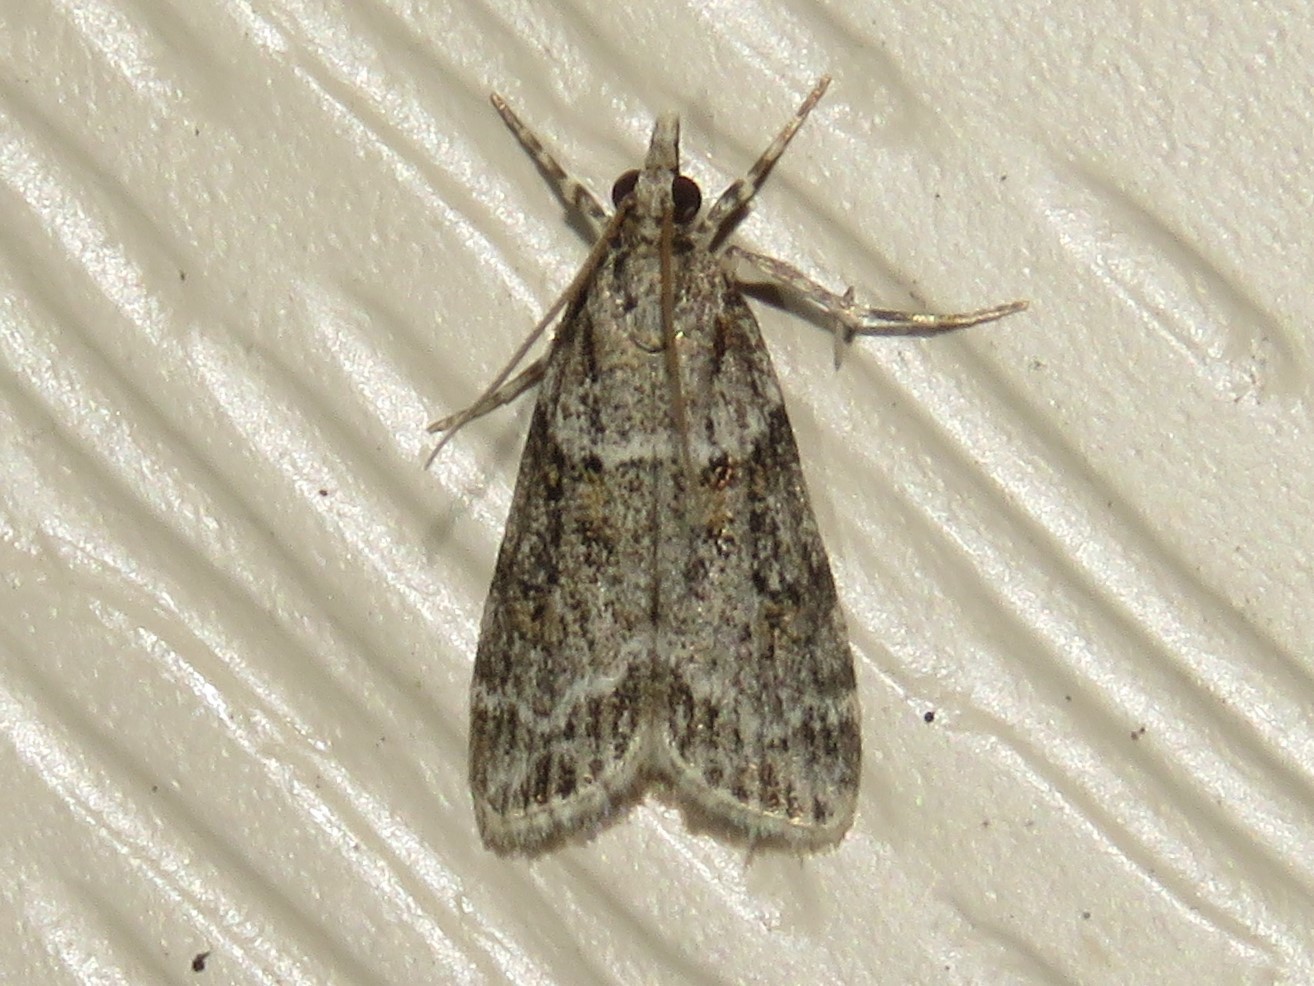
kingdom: Animalia
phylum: Arthropoda
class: Insecta
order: Lepidoptera
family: Crambidae
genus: Scoparia
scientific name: Scoparia biplagialis
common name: Double-striped scoparia moth
